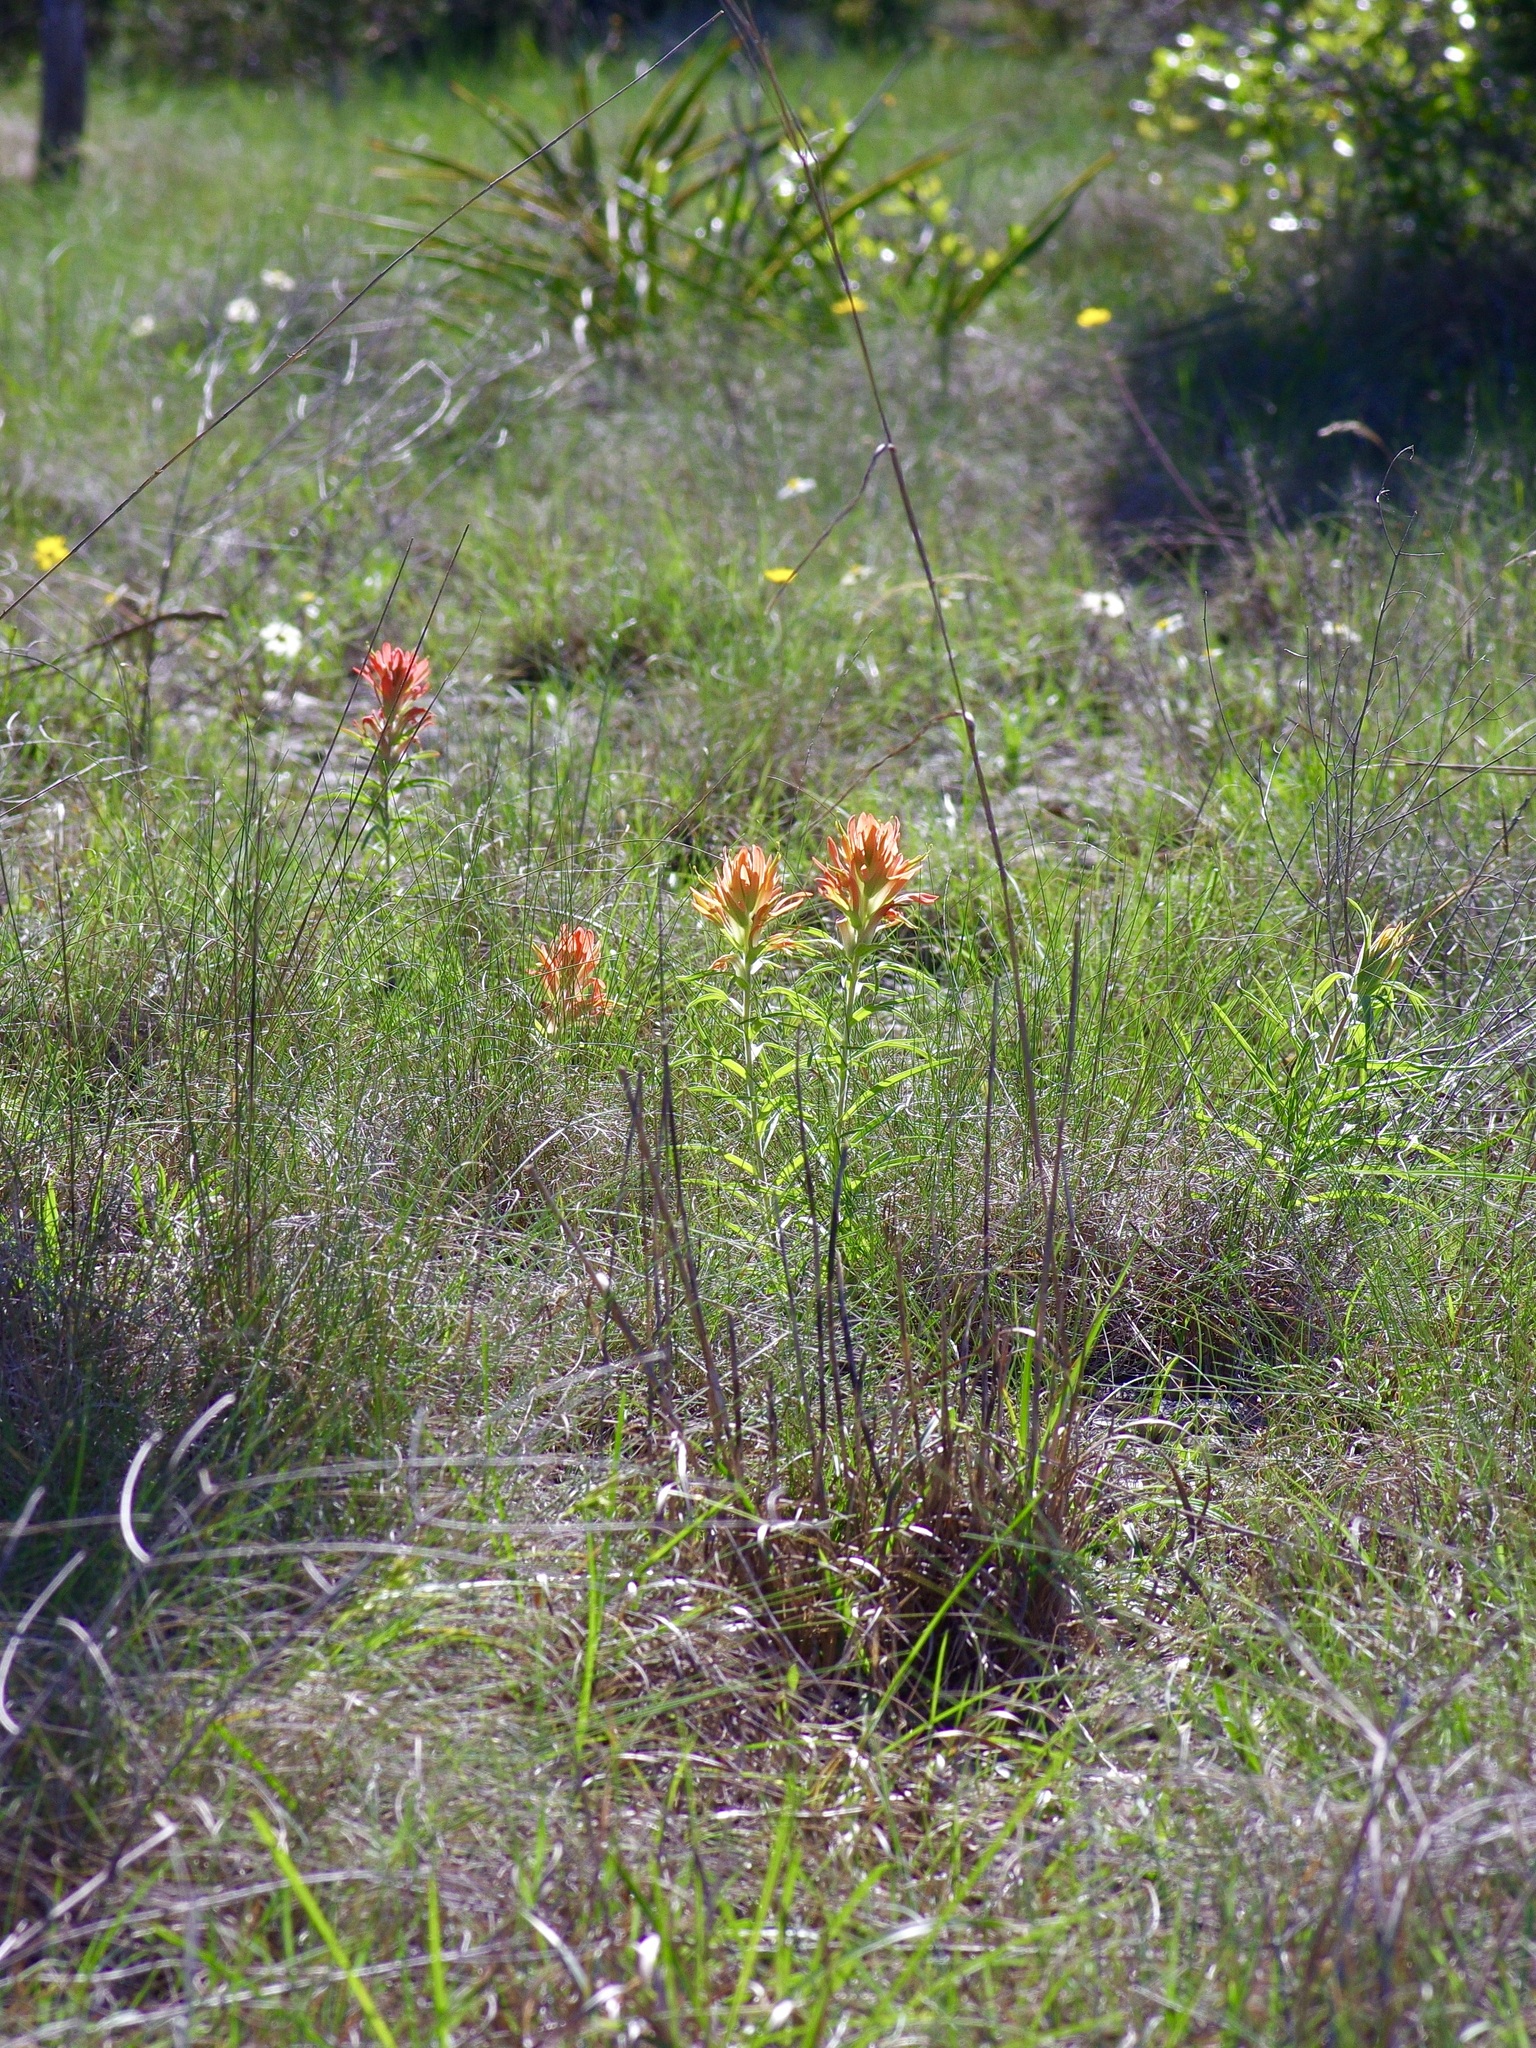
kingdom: Plantae
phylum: Tracheophyta
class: Magnoliopsida
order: Lamiales
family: Orobanchaceae
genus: Castilleja
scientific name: Castilleja lindheimeri
